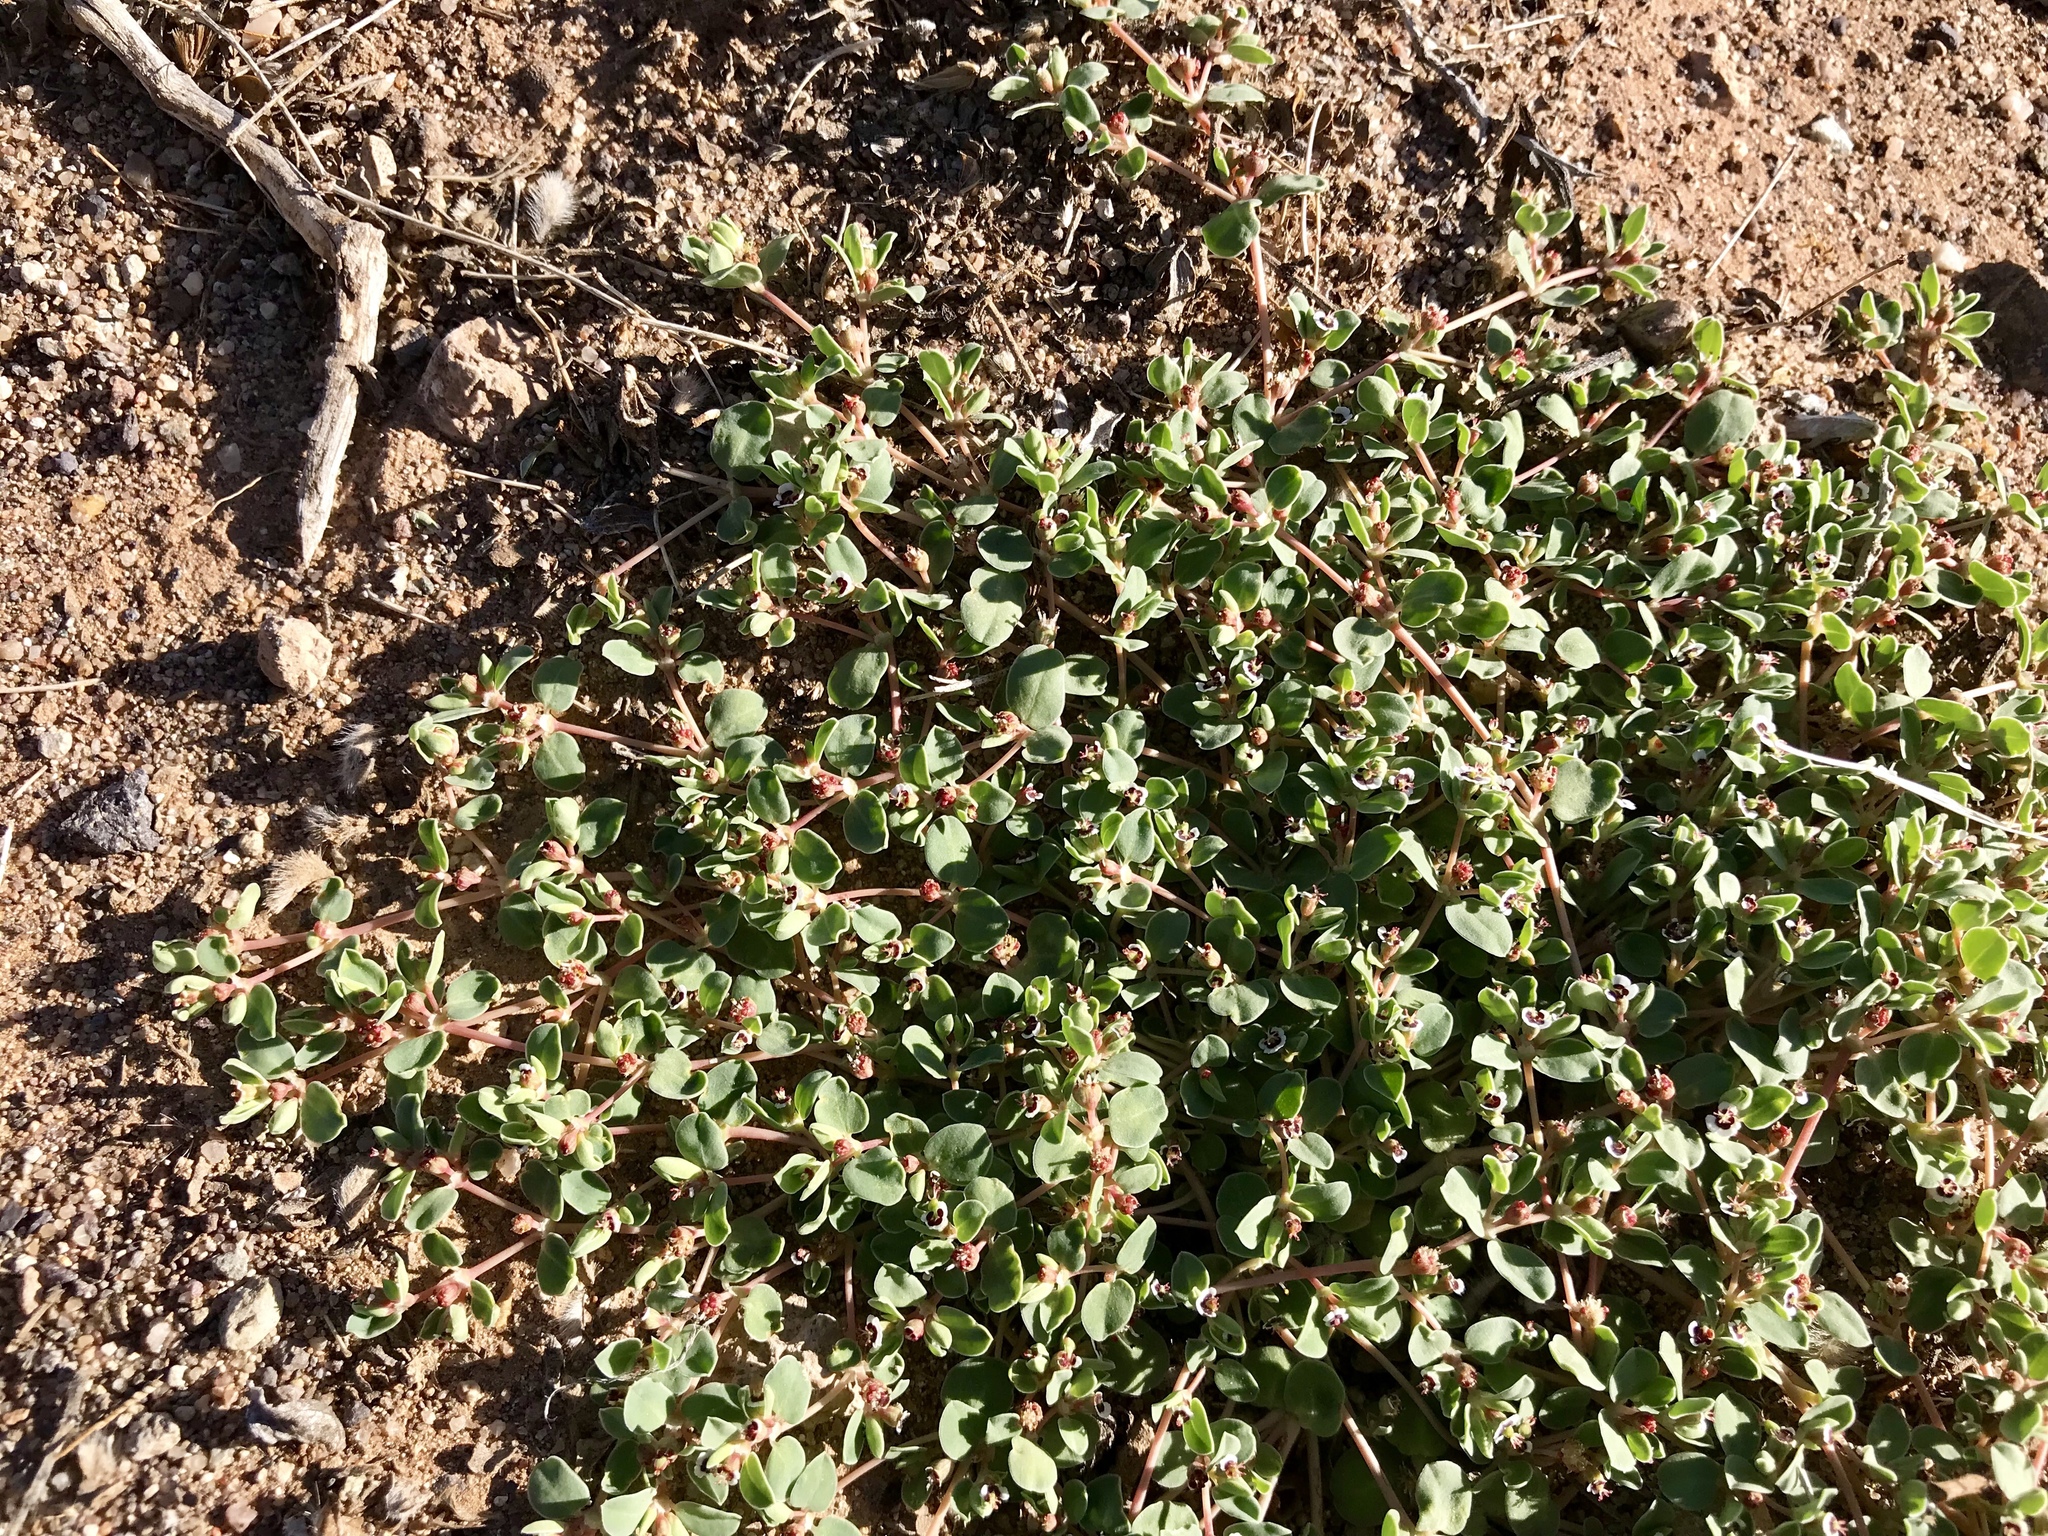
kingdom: Plantae
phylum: Tracheophyta
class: Magnoliopsida
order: Malpighiales
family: Euphorbiaceae
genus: Euphorbia
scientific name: Euphorbia albomarginata
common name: Whitemargin sandmat
